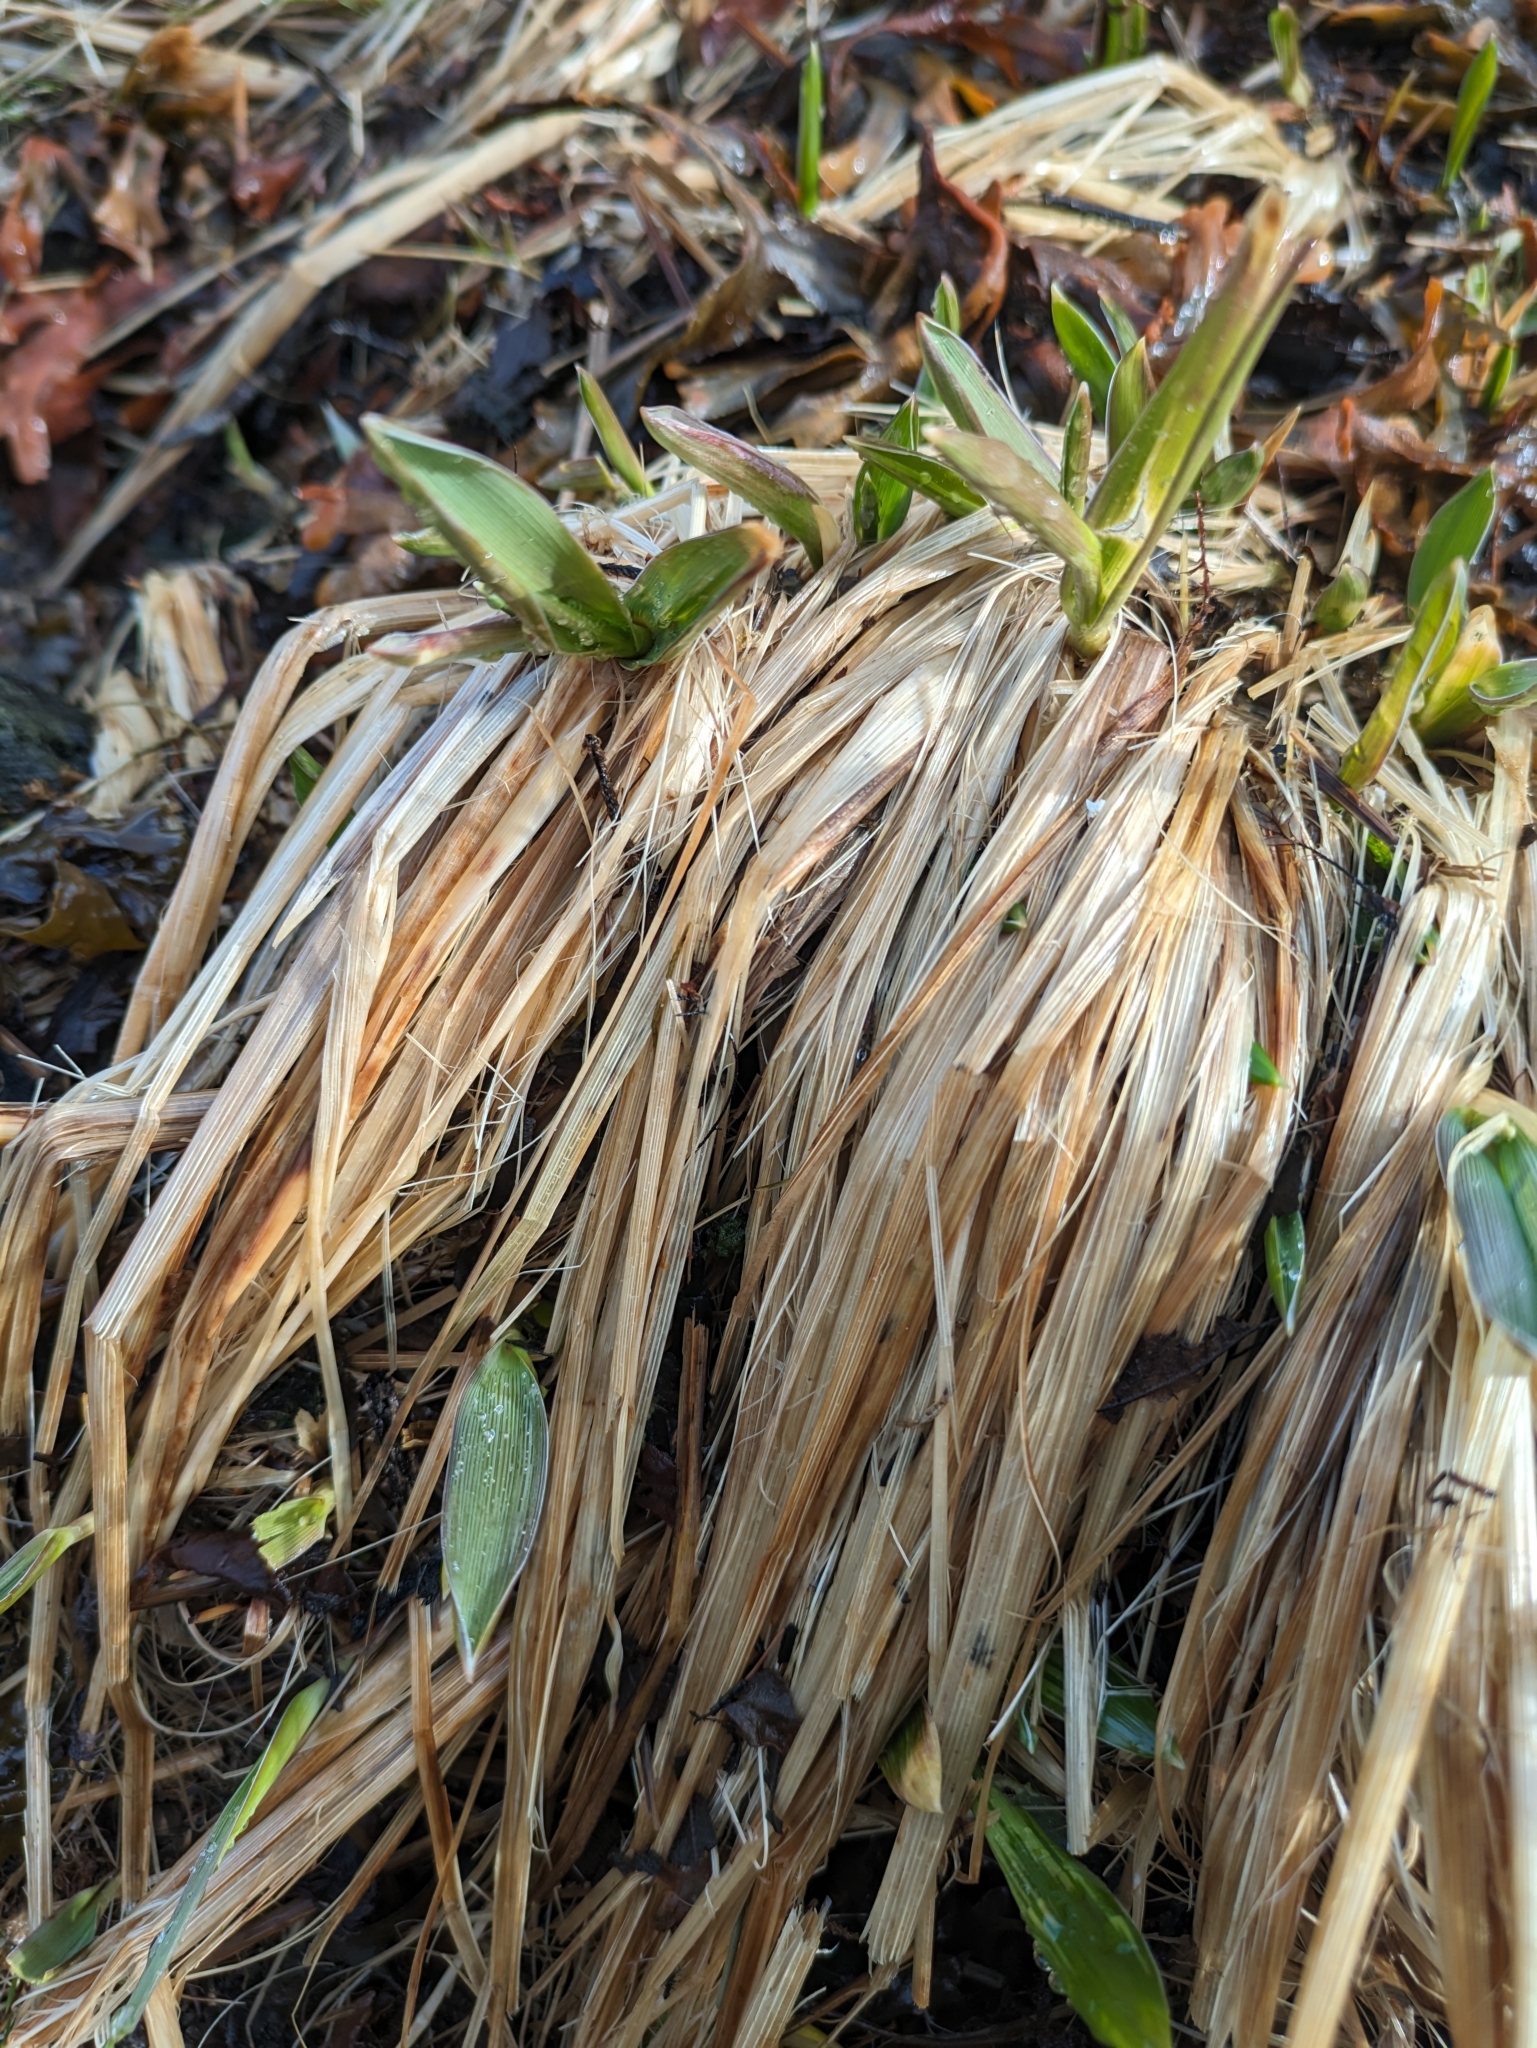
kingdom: Plantae
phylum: Tracheophyta
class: Liliopsida
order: Poales
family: Poaceae
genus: Leymus
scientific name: Leymus mollis
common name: American dune grass
